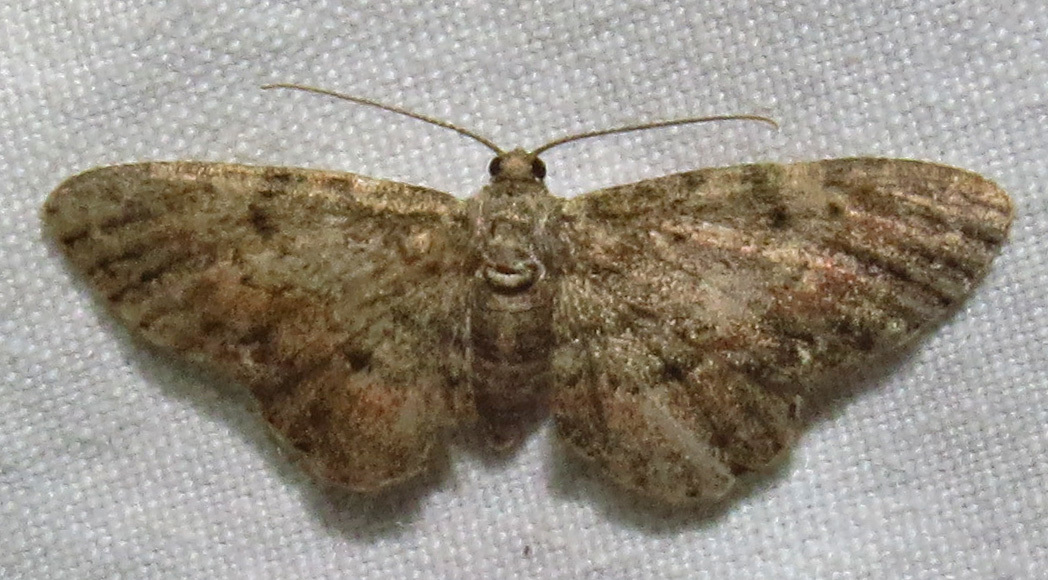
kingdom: Animalia
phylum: Arthropoda
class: Insecta
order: Lepidoptera
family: Geometridae
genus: Glenoides
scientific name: Glenoides texanaria
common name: Texas gray
